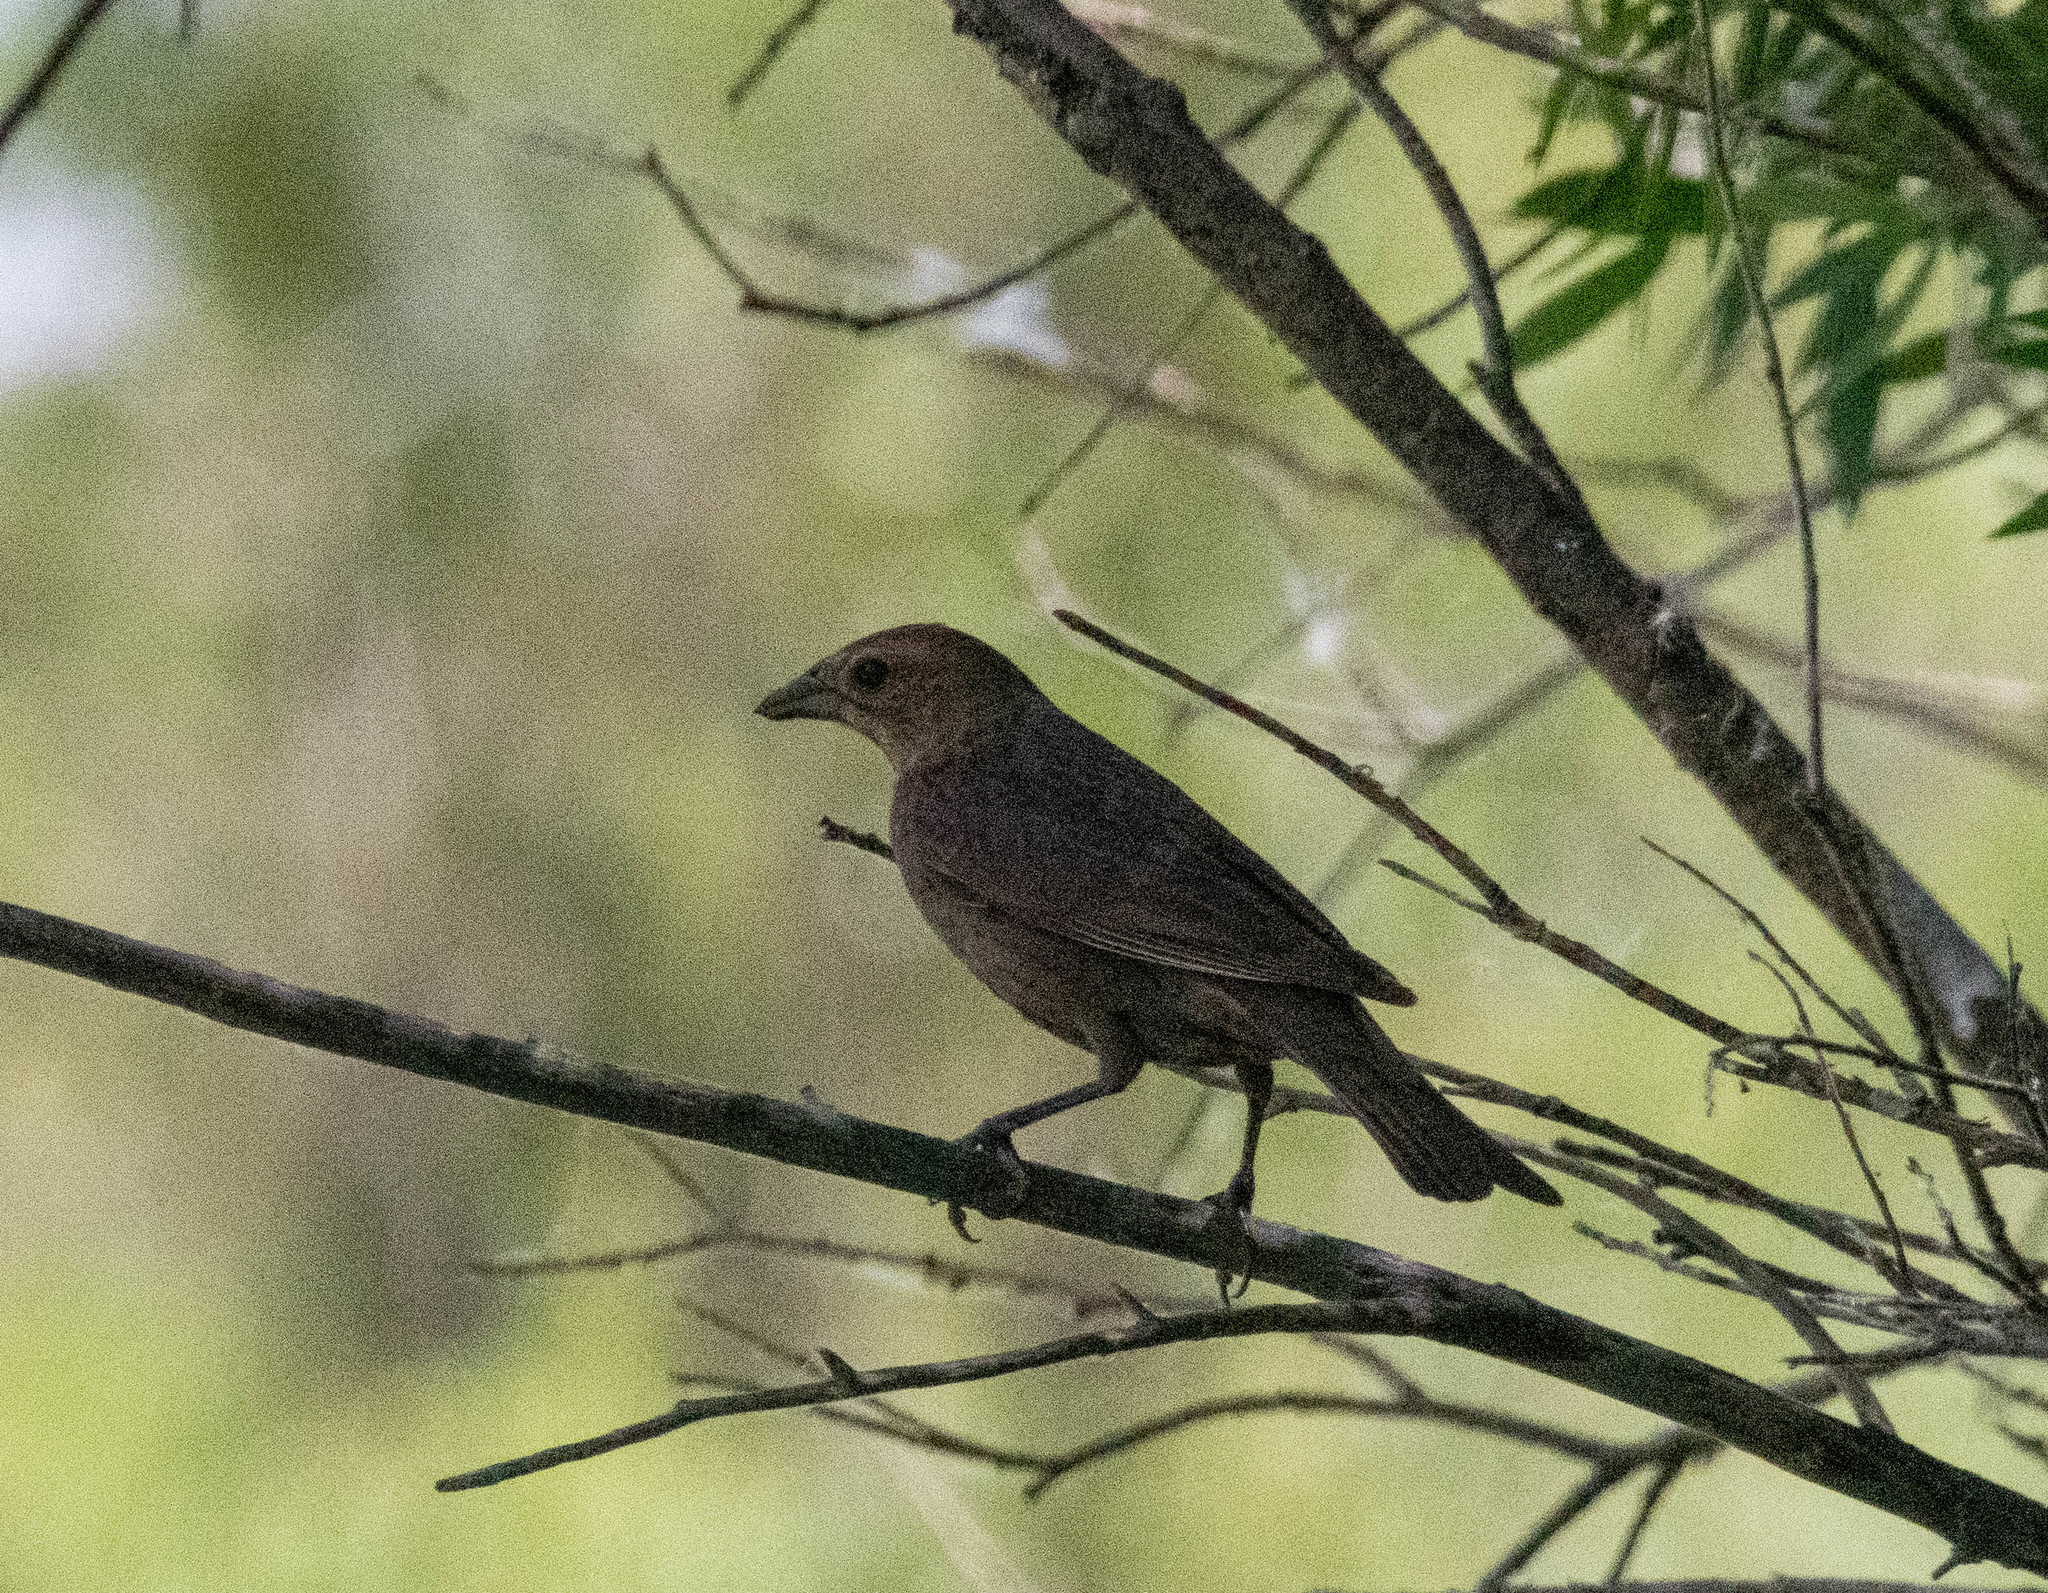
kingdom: Animalia
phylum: Chordata
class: Aves
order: Passeriformes
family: Icteridae
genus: Molothrus
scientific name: Molothrus ater
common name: Brown-headed cowbird
